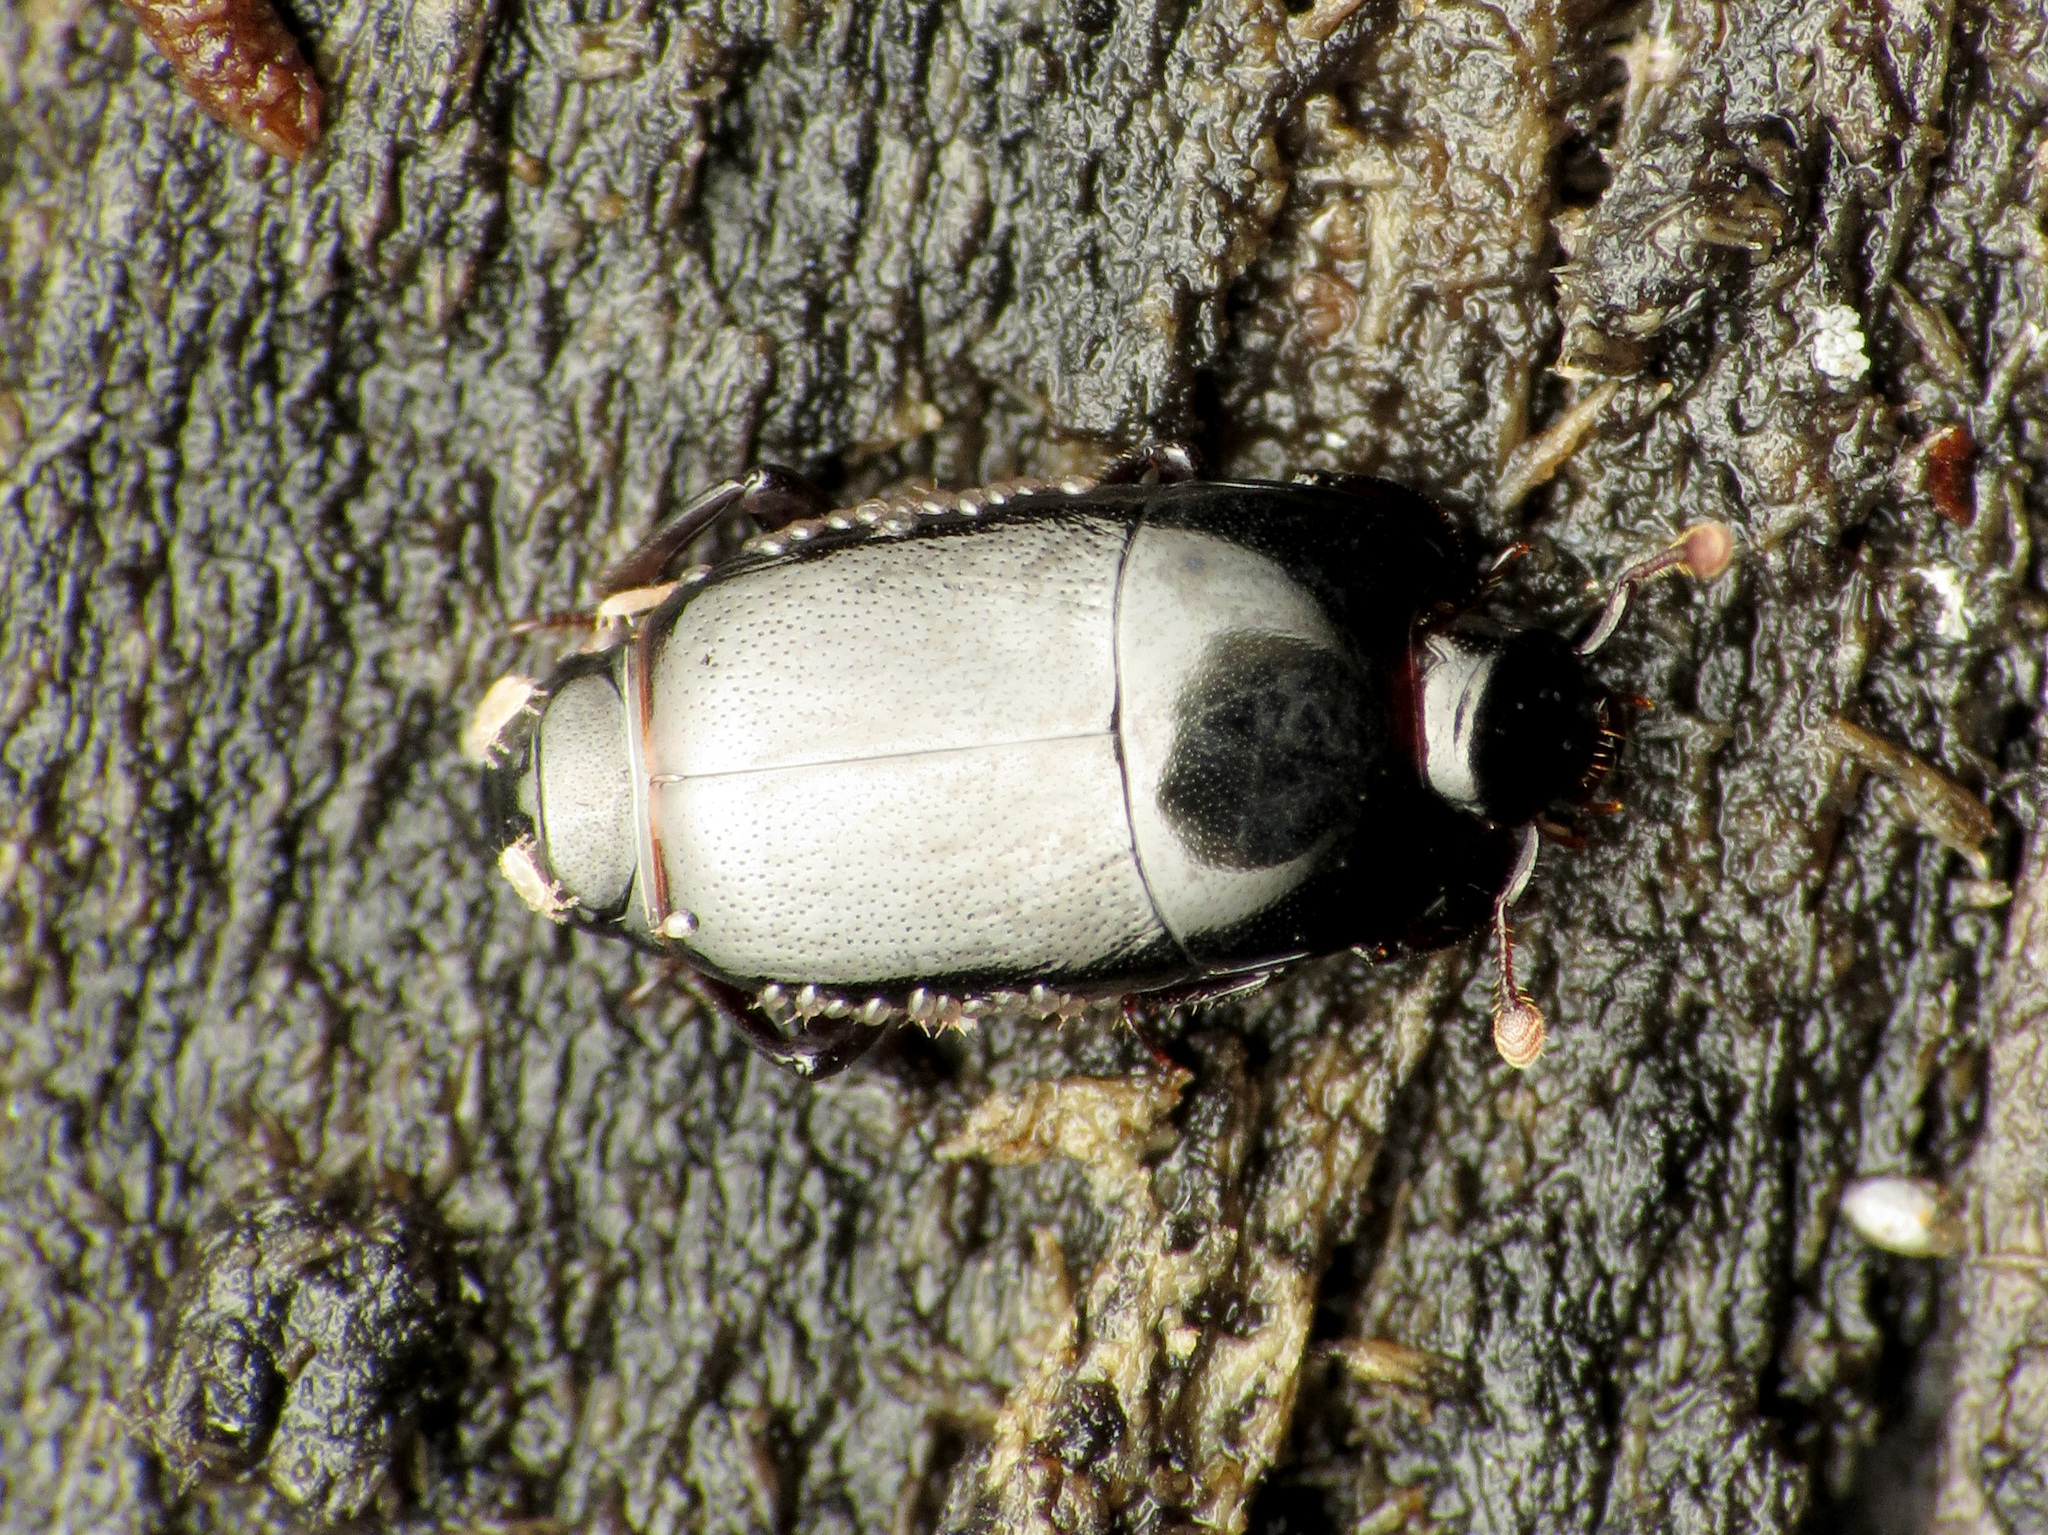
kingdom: Animalia
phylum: Arthropoda
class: Insecta
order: Coleoptera
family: Histeridae
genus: Platylomalus
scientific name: Platylomalus aequalis
